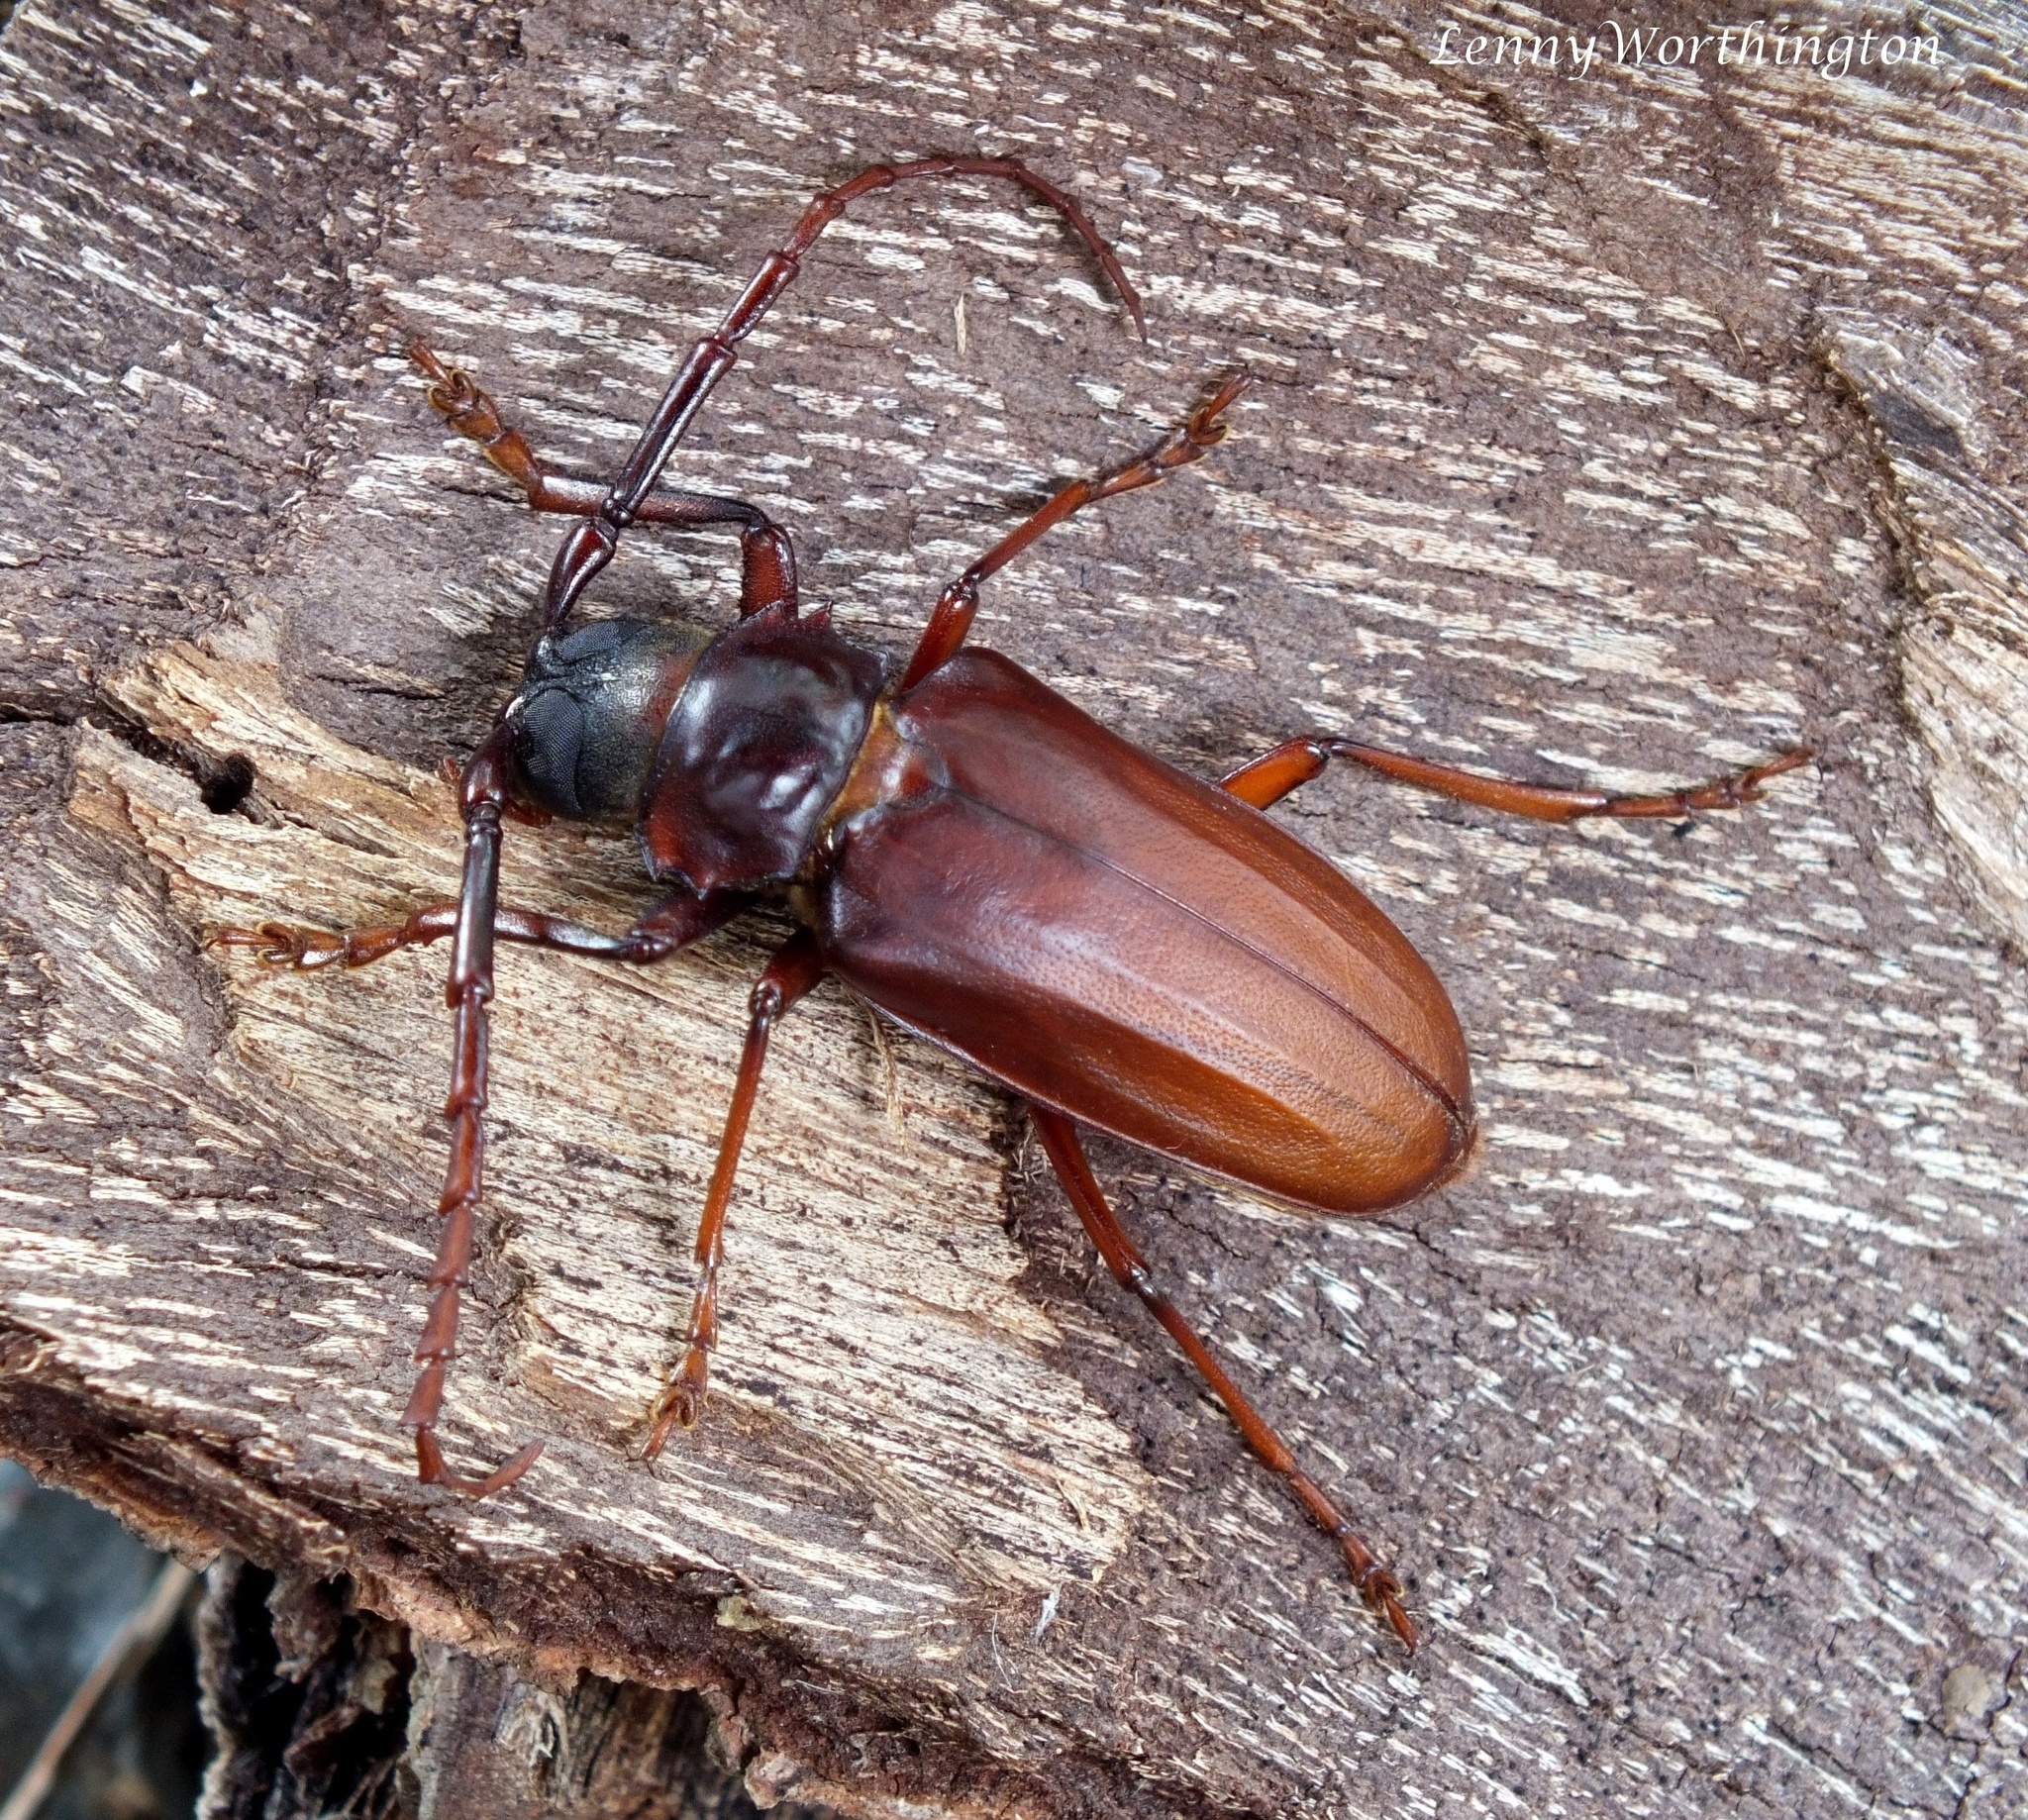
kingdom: Animalia
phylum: Arthropoda
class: Insecta
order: Coleoptera
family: Cerambycidae
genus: Dorysthenes
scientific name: Dorysthenes beli
